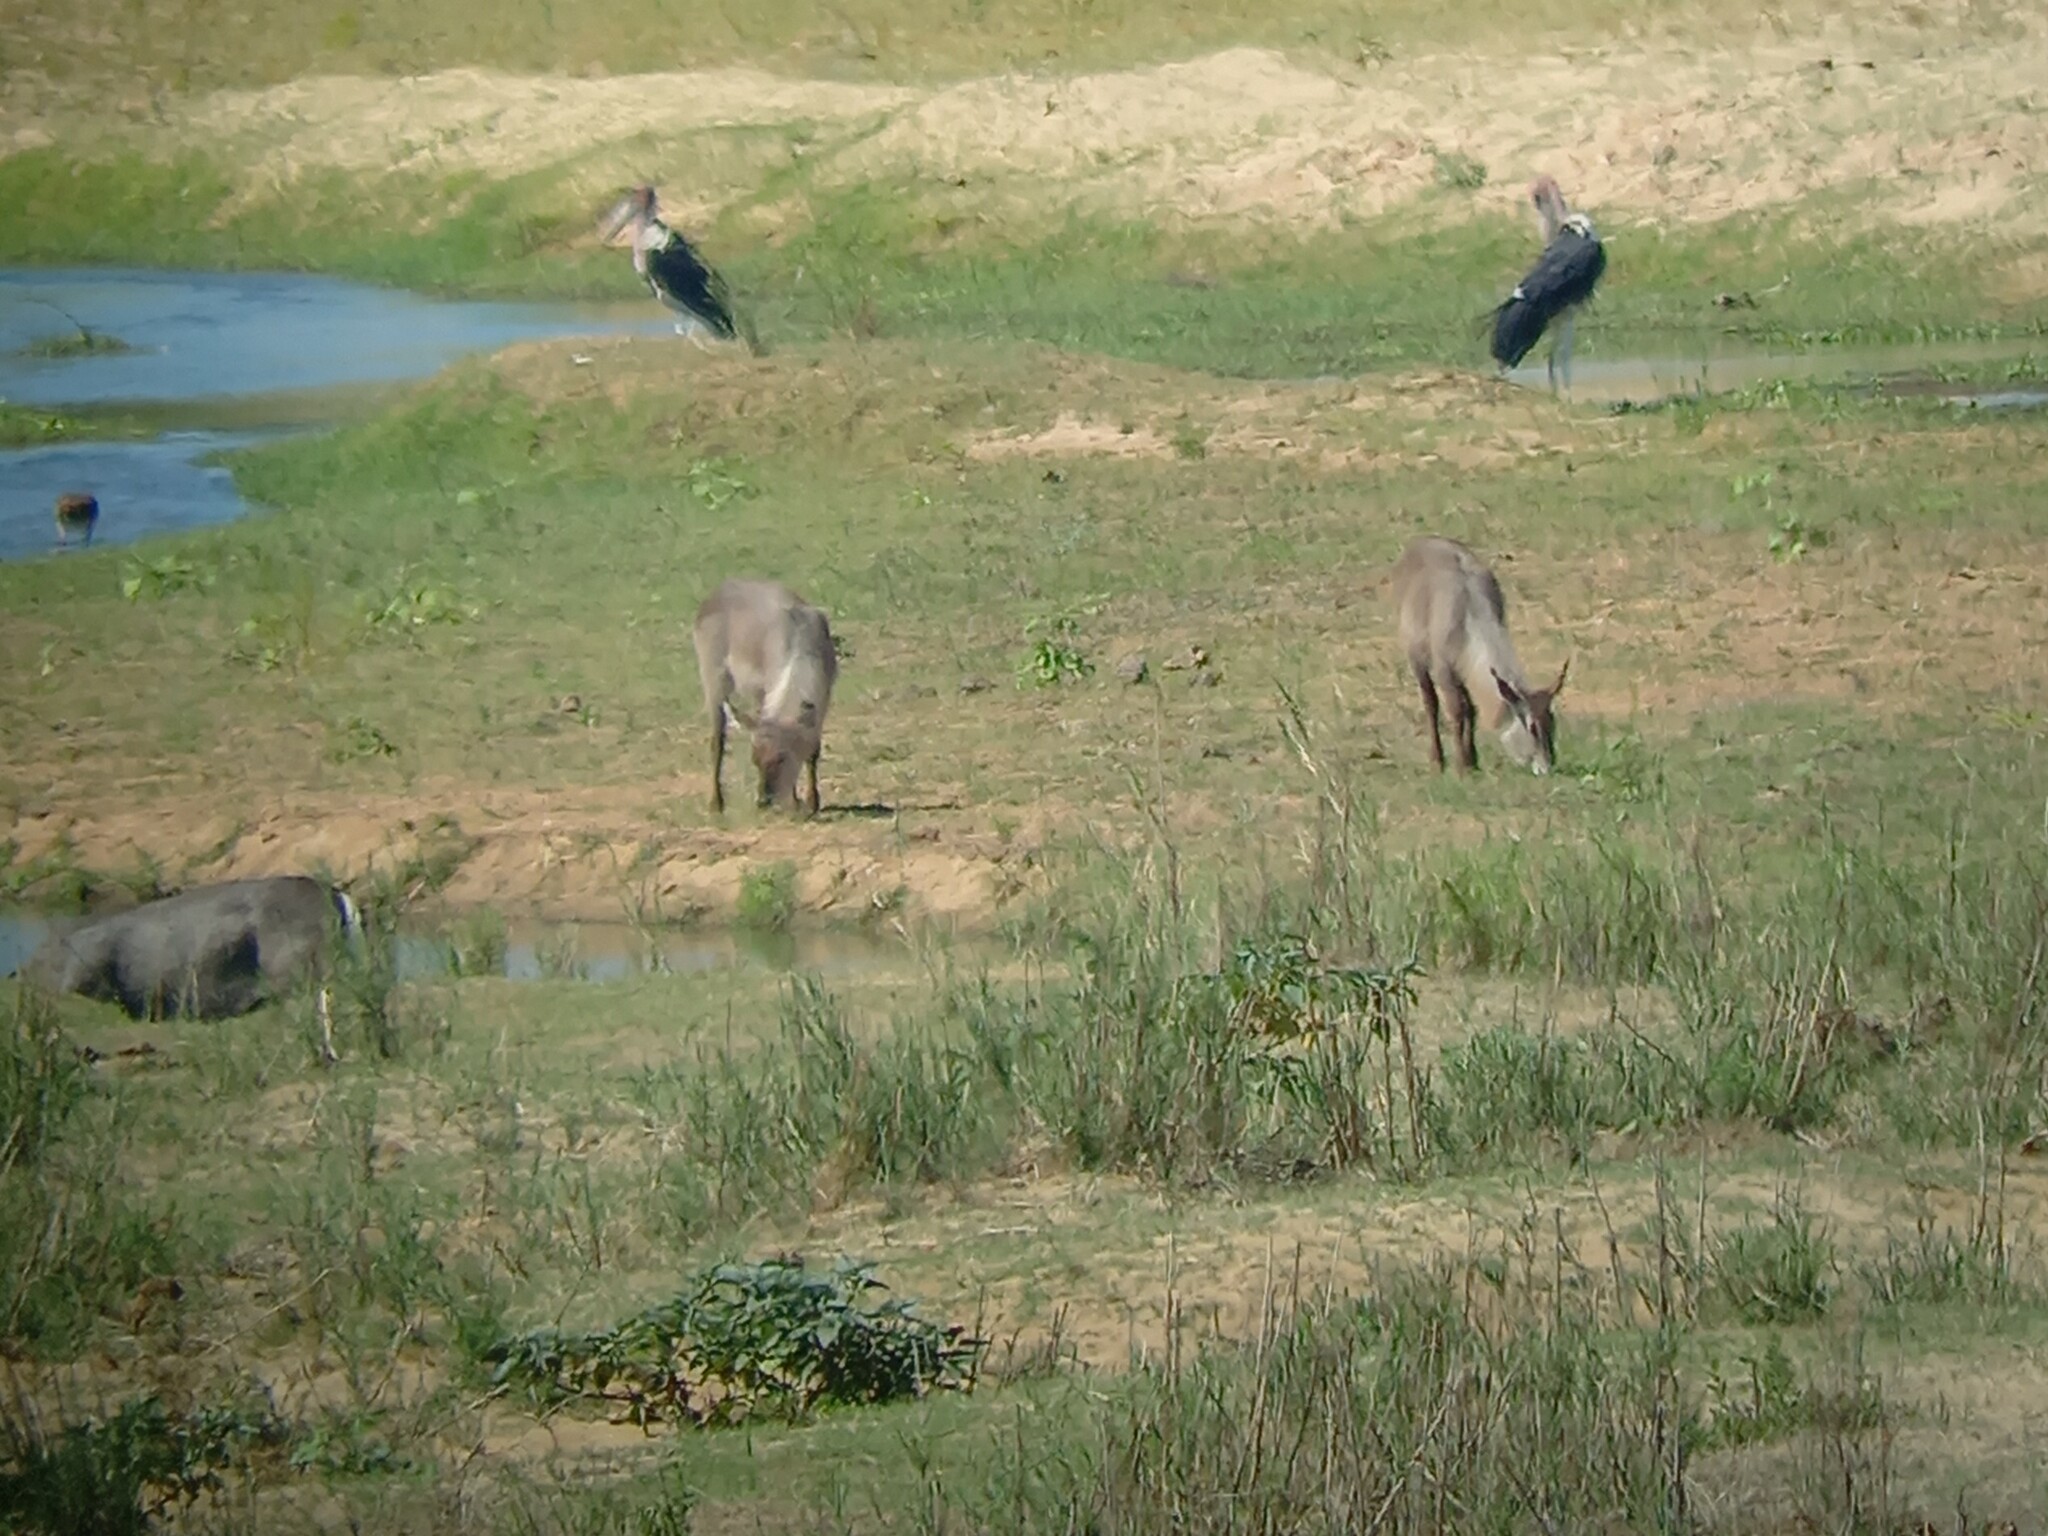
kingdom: Animalia
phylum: Chordata
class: Mammalia
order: Artiodactyla
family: Bovidae
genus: Kobus
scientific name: Kobus ellipsiprymnus
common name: Waterbuck
